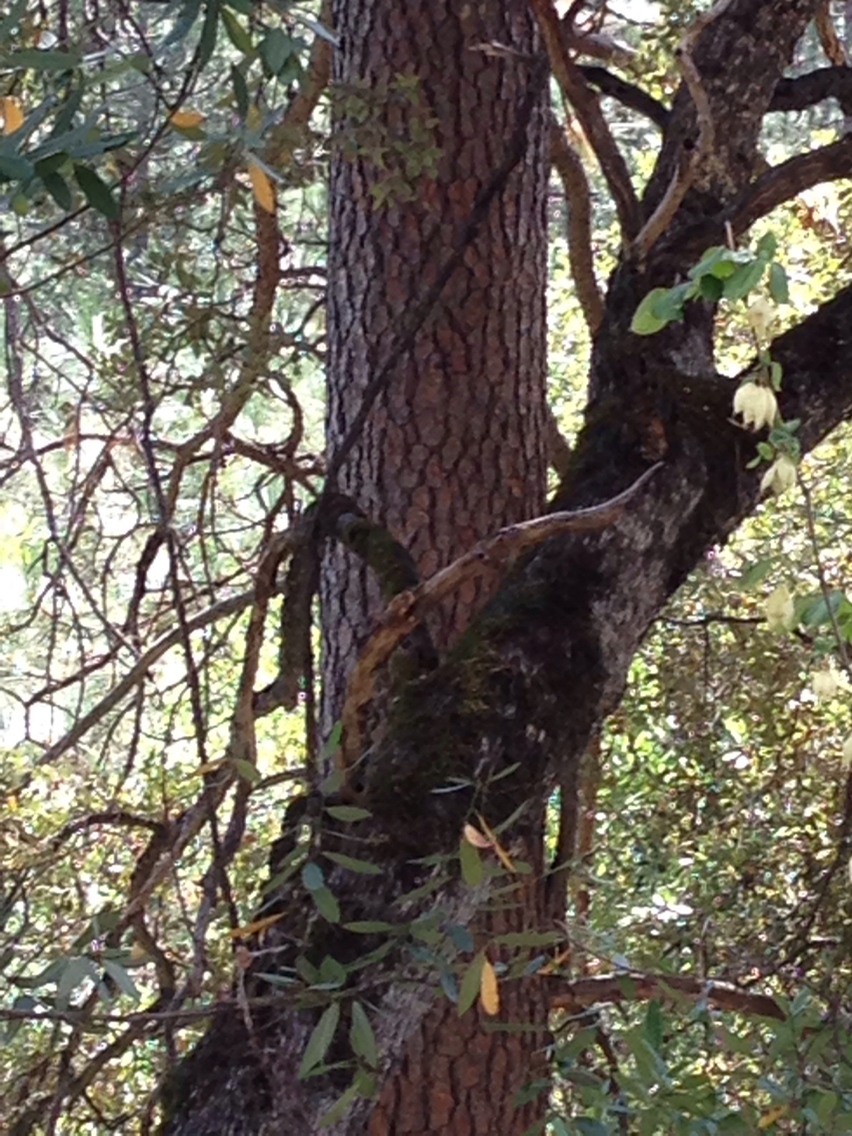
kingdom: Plantae
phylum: Tracheophyta
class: Pinopsida
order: Pinales
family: Pinaceae
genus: Pinus
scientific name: Pinus ponderosa
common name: Western yellow-pine
